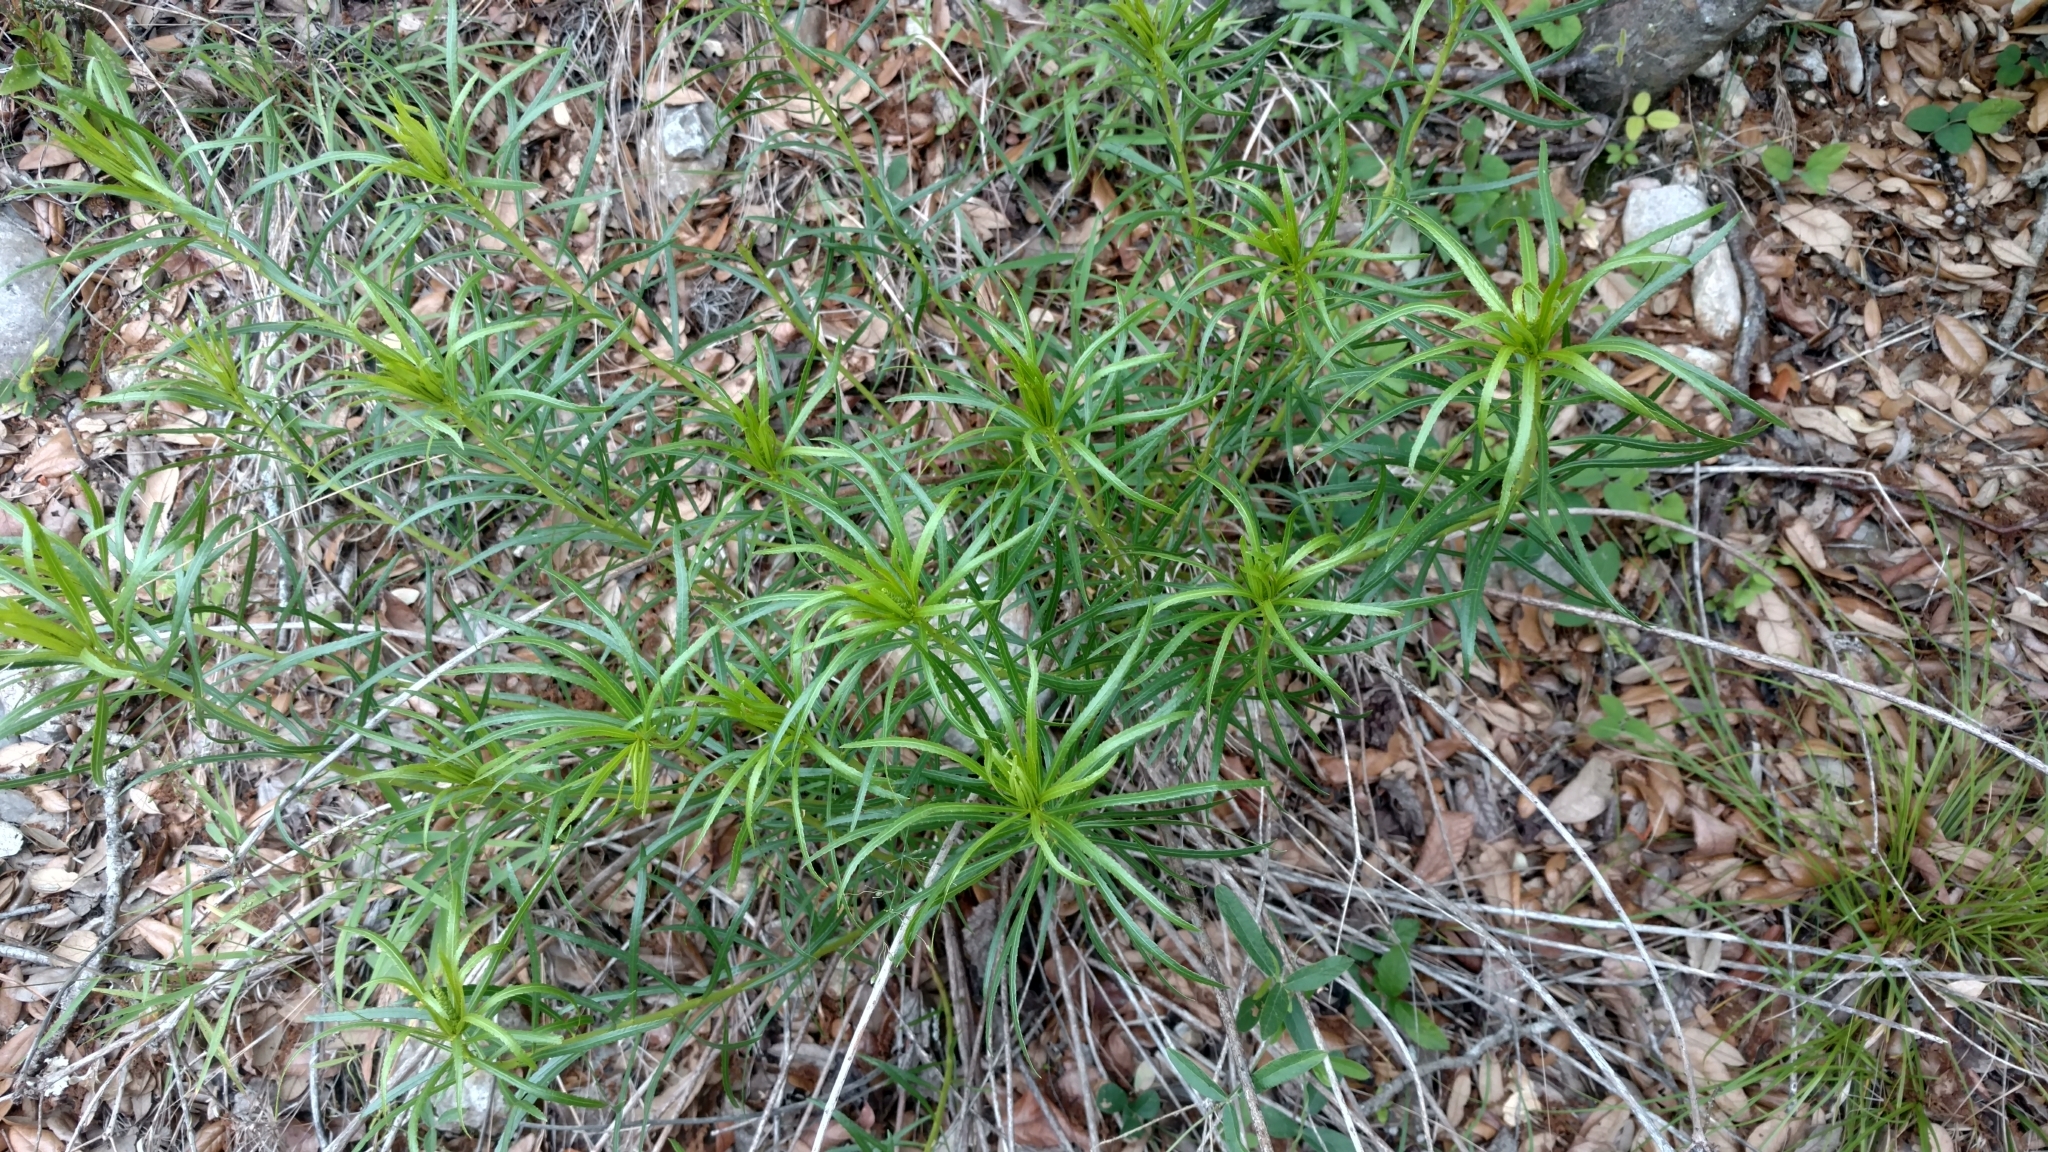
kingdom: Plantae
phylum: Tracheophyta
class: Magnoliopsida
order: Malpighiales
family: Euphorbiaceae
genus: Stillingia
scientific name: Stillingia texana
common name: Texas stillingia
